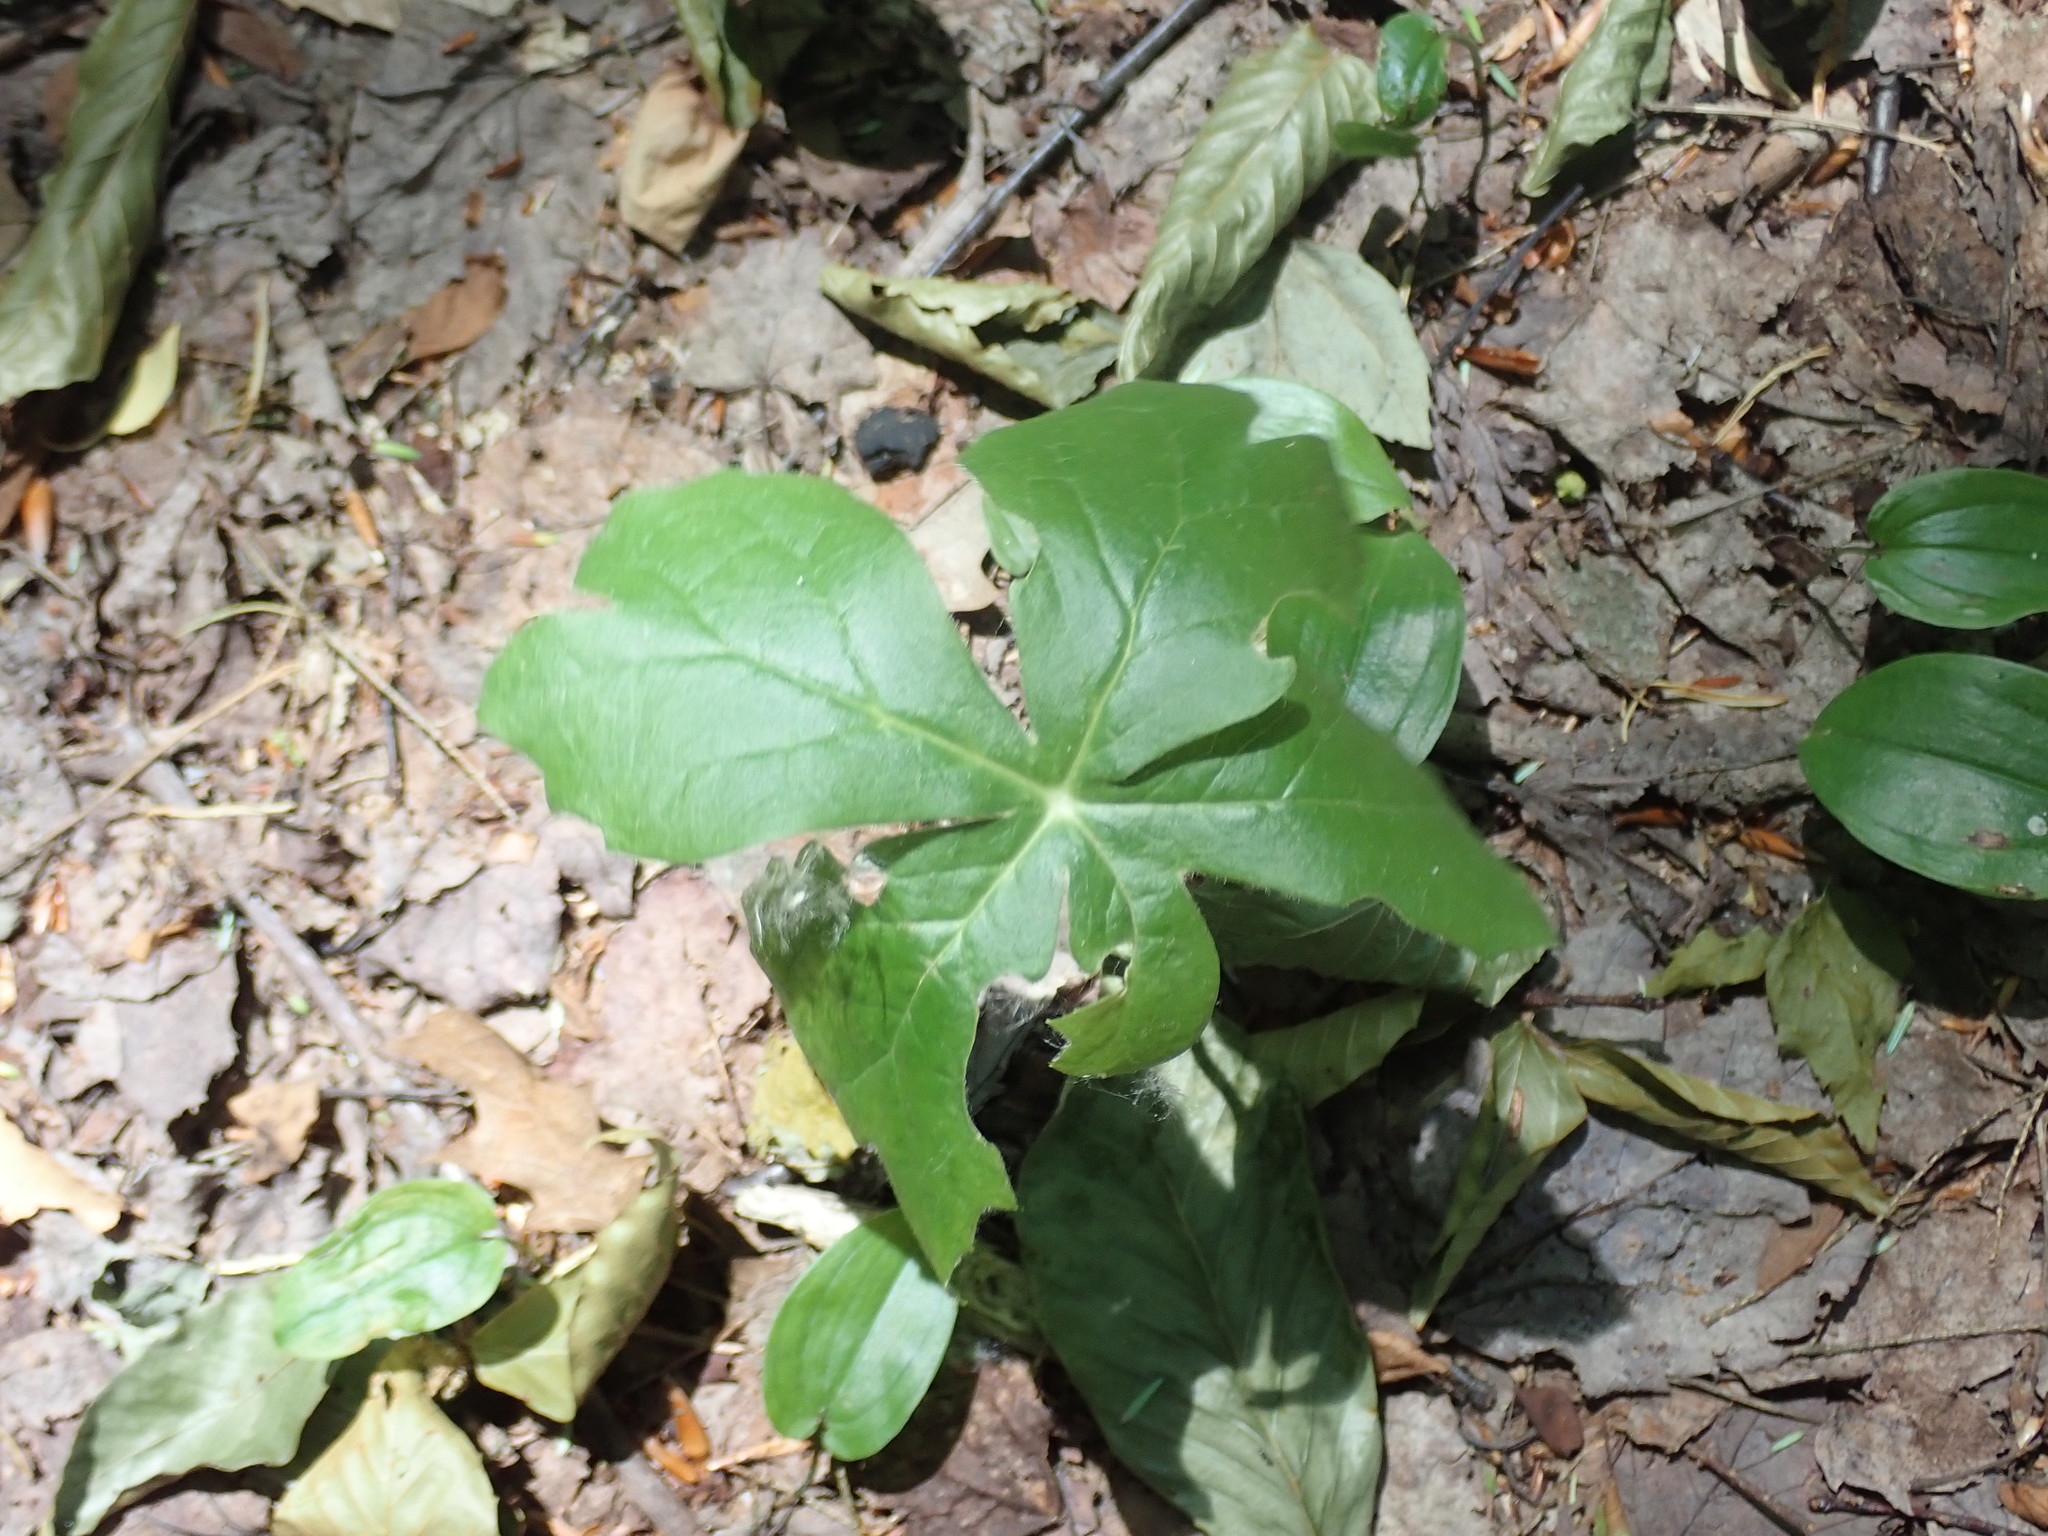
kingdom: Plantae
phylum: Tracheophyta
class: Magnoliopsida
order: Ranunculales
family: Berberidaceae
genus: Podophyllum
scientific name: Podophyllum peltatum
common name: Wild mandrake
